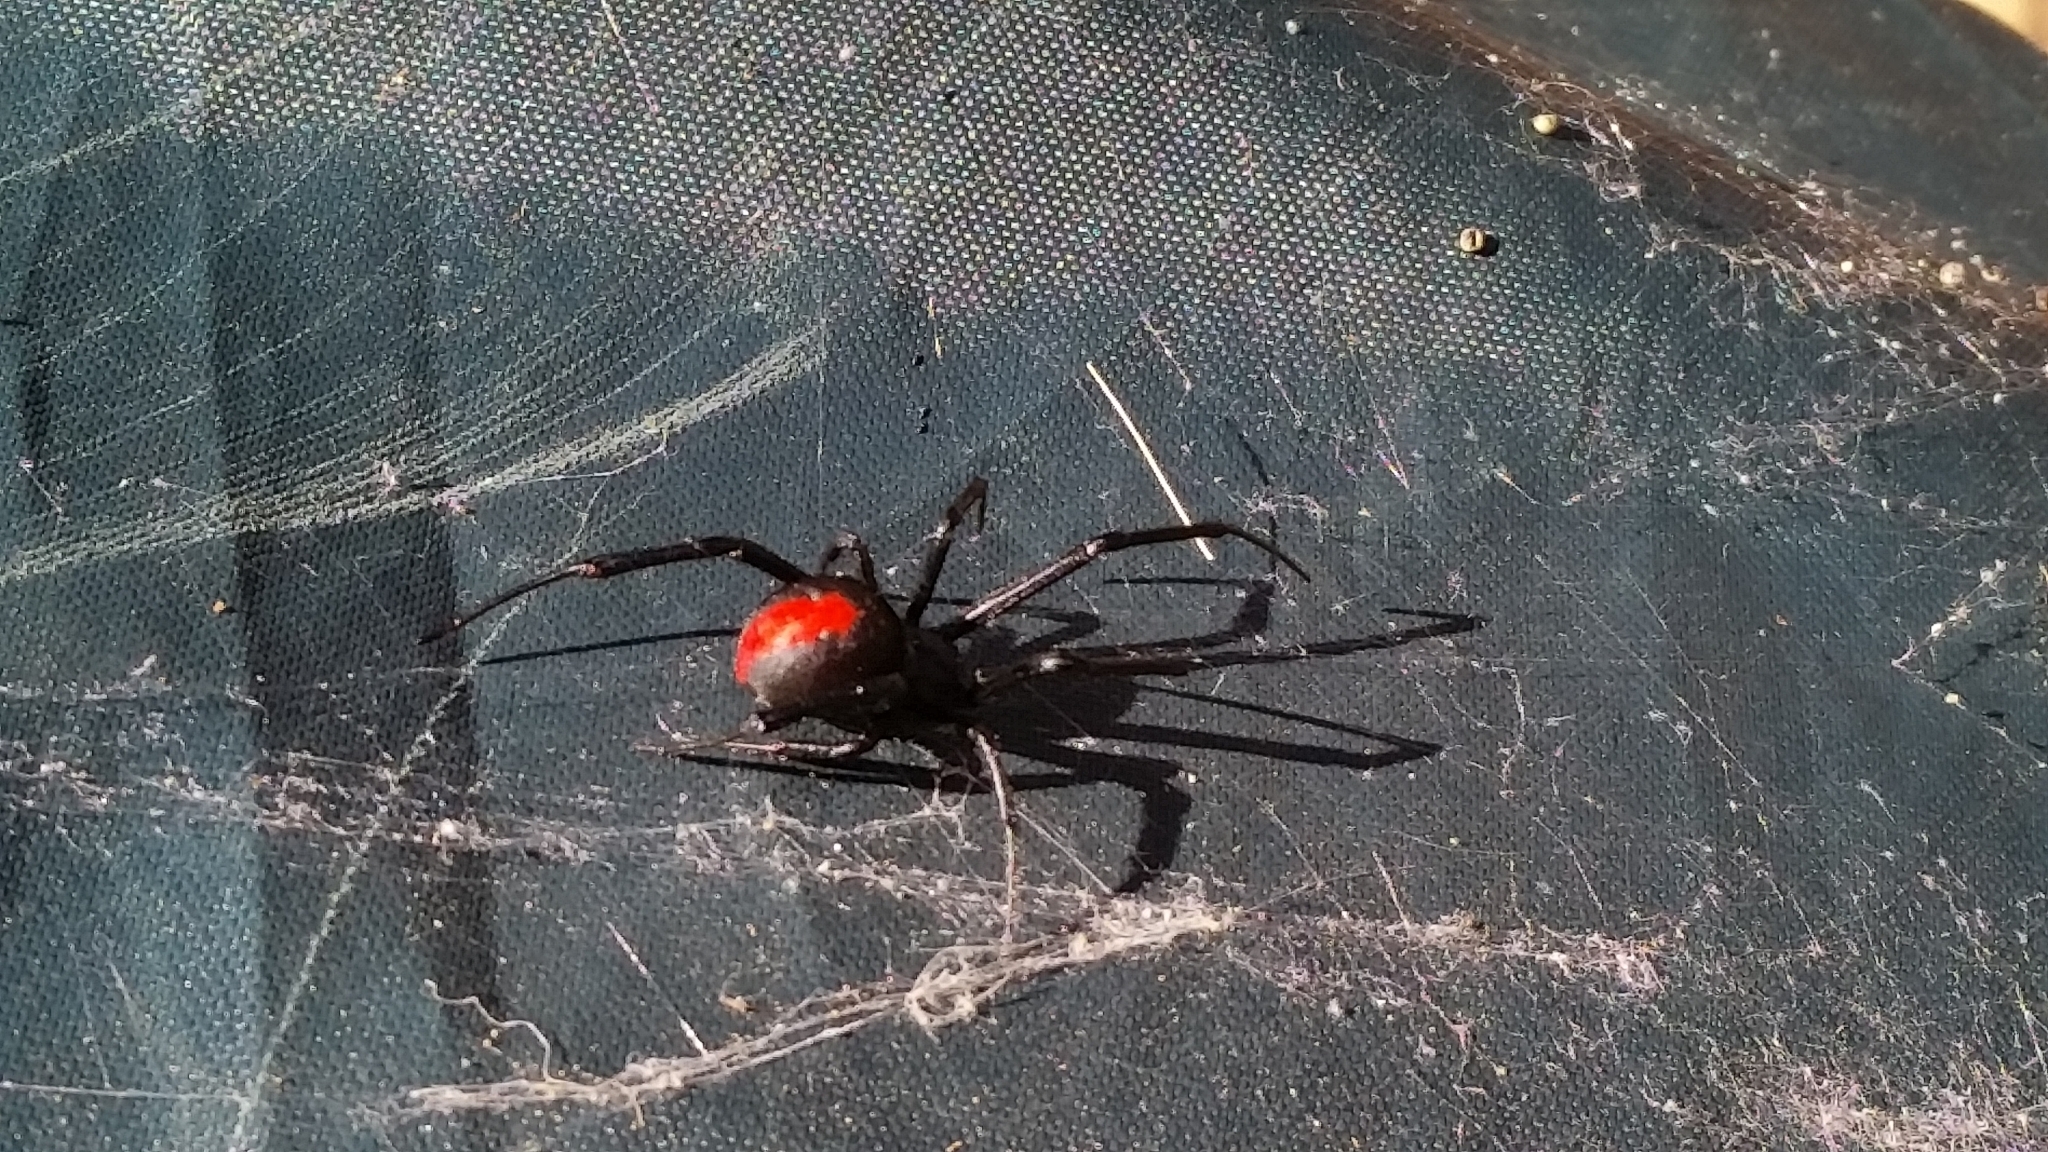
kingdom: Animalia
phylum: Arthropoda
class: Arachnida
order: Araneae
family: Theridiidae
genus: Latrodectus
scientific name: Latrodectus hasselti
